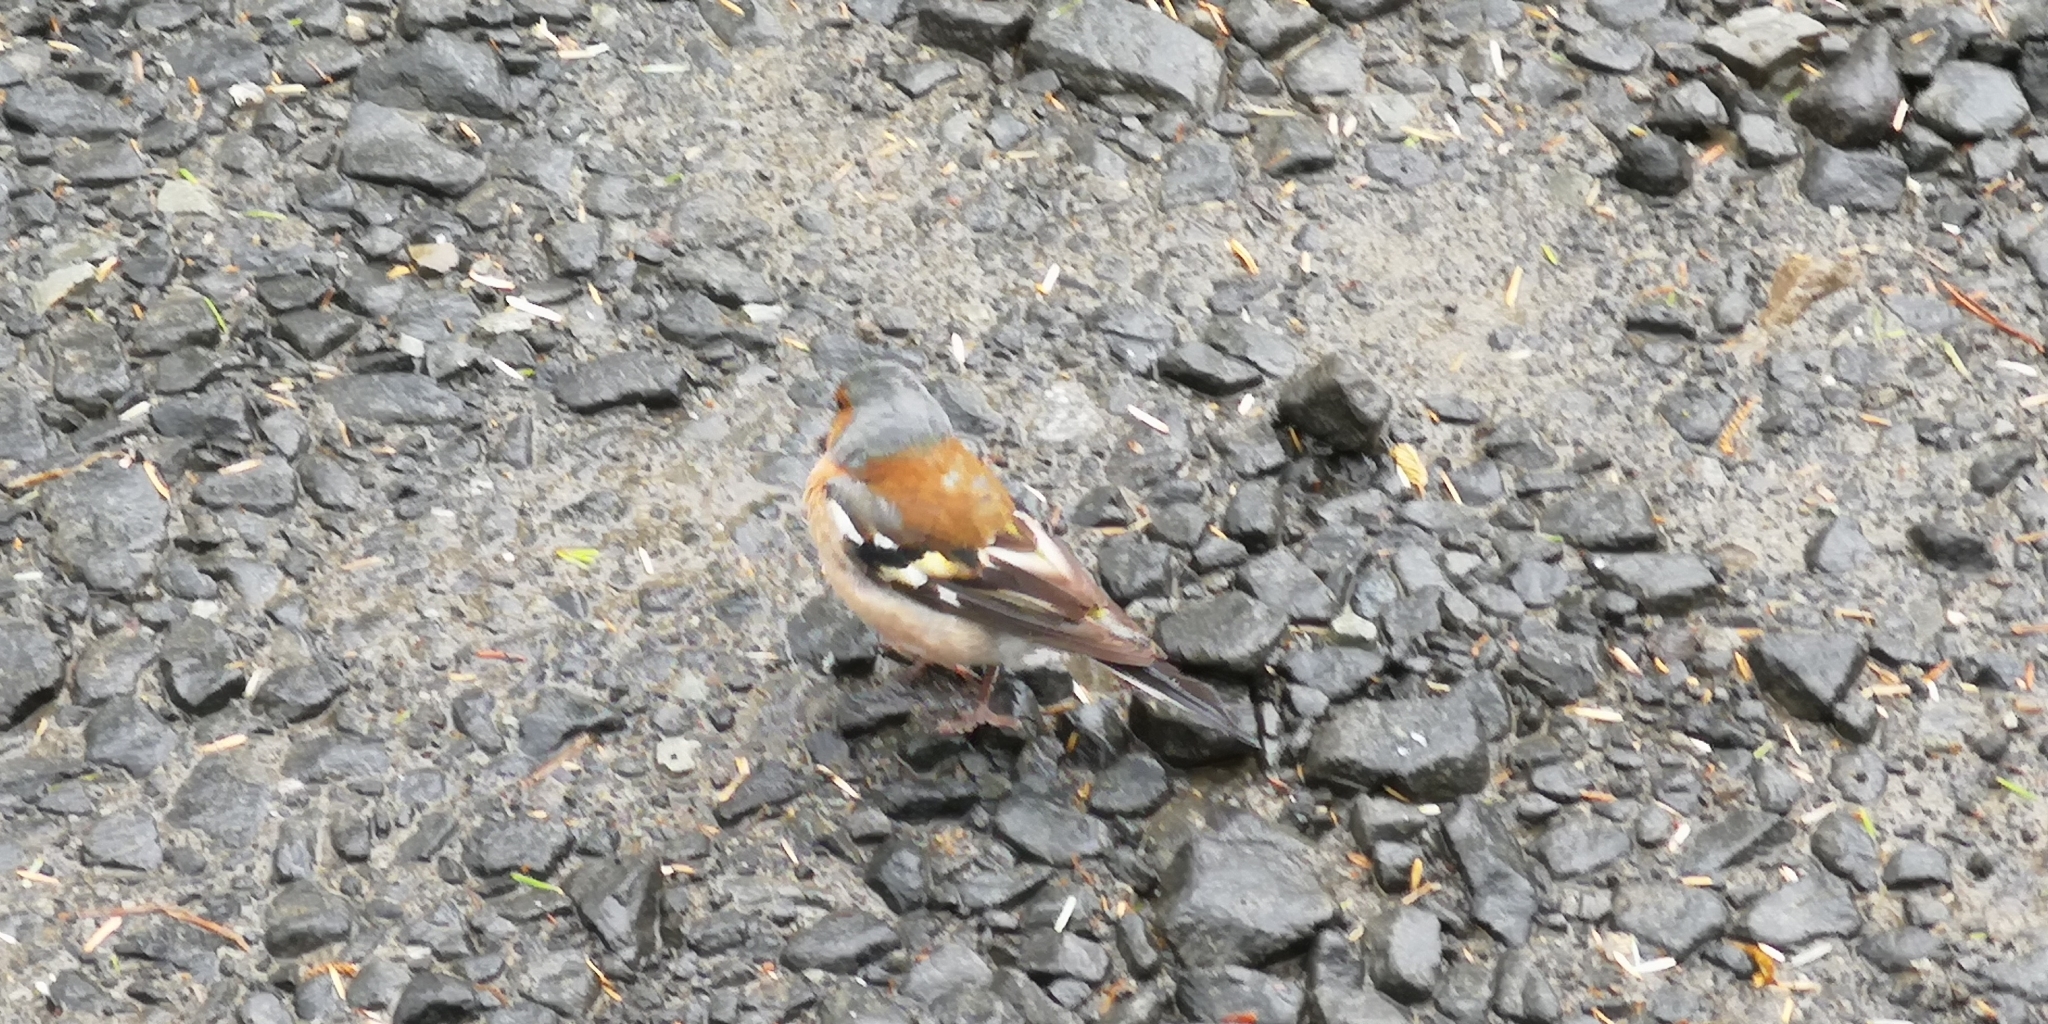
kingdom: Animalia
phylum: Chordata
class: Aves
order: Passeriformes
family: Fringillidae
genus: Fringilla
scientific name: Fringilla coelebs
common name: Common chaffinch
